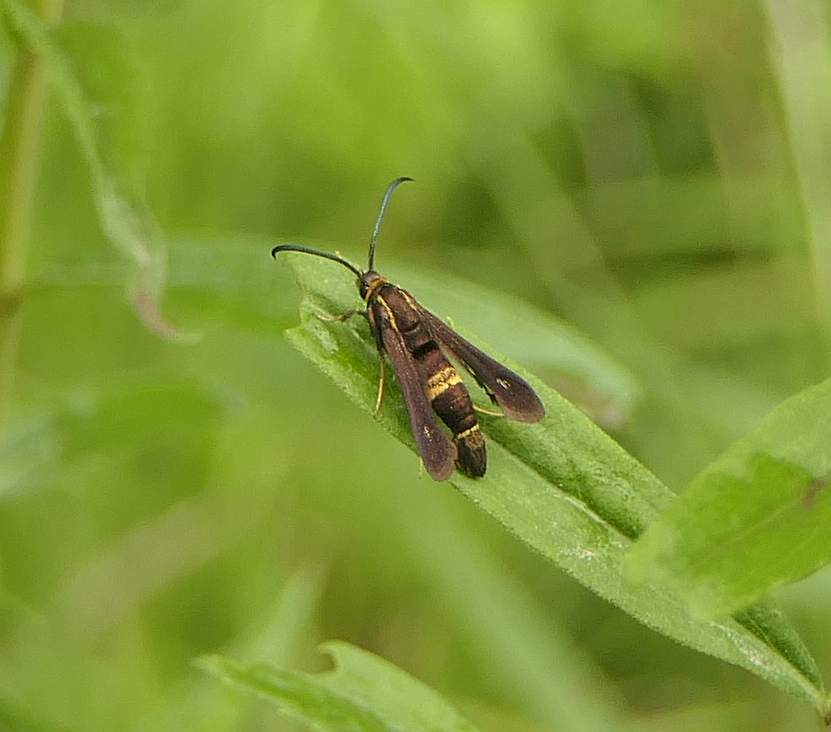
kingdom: Animalia
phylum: Arthropoda
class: Insecta
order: Lepidoptera
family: Sesiidae
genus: Carmenta
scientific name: Carmenta pyralidiformis
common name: Boneset borer moth
